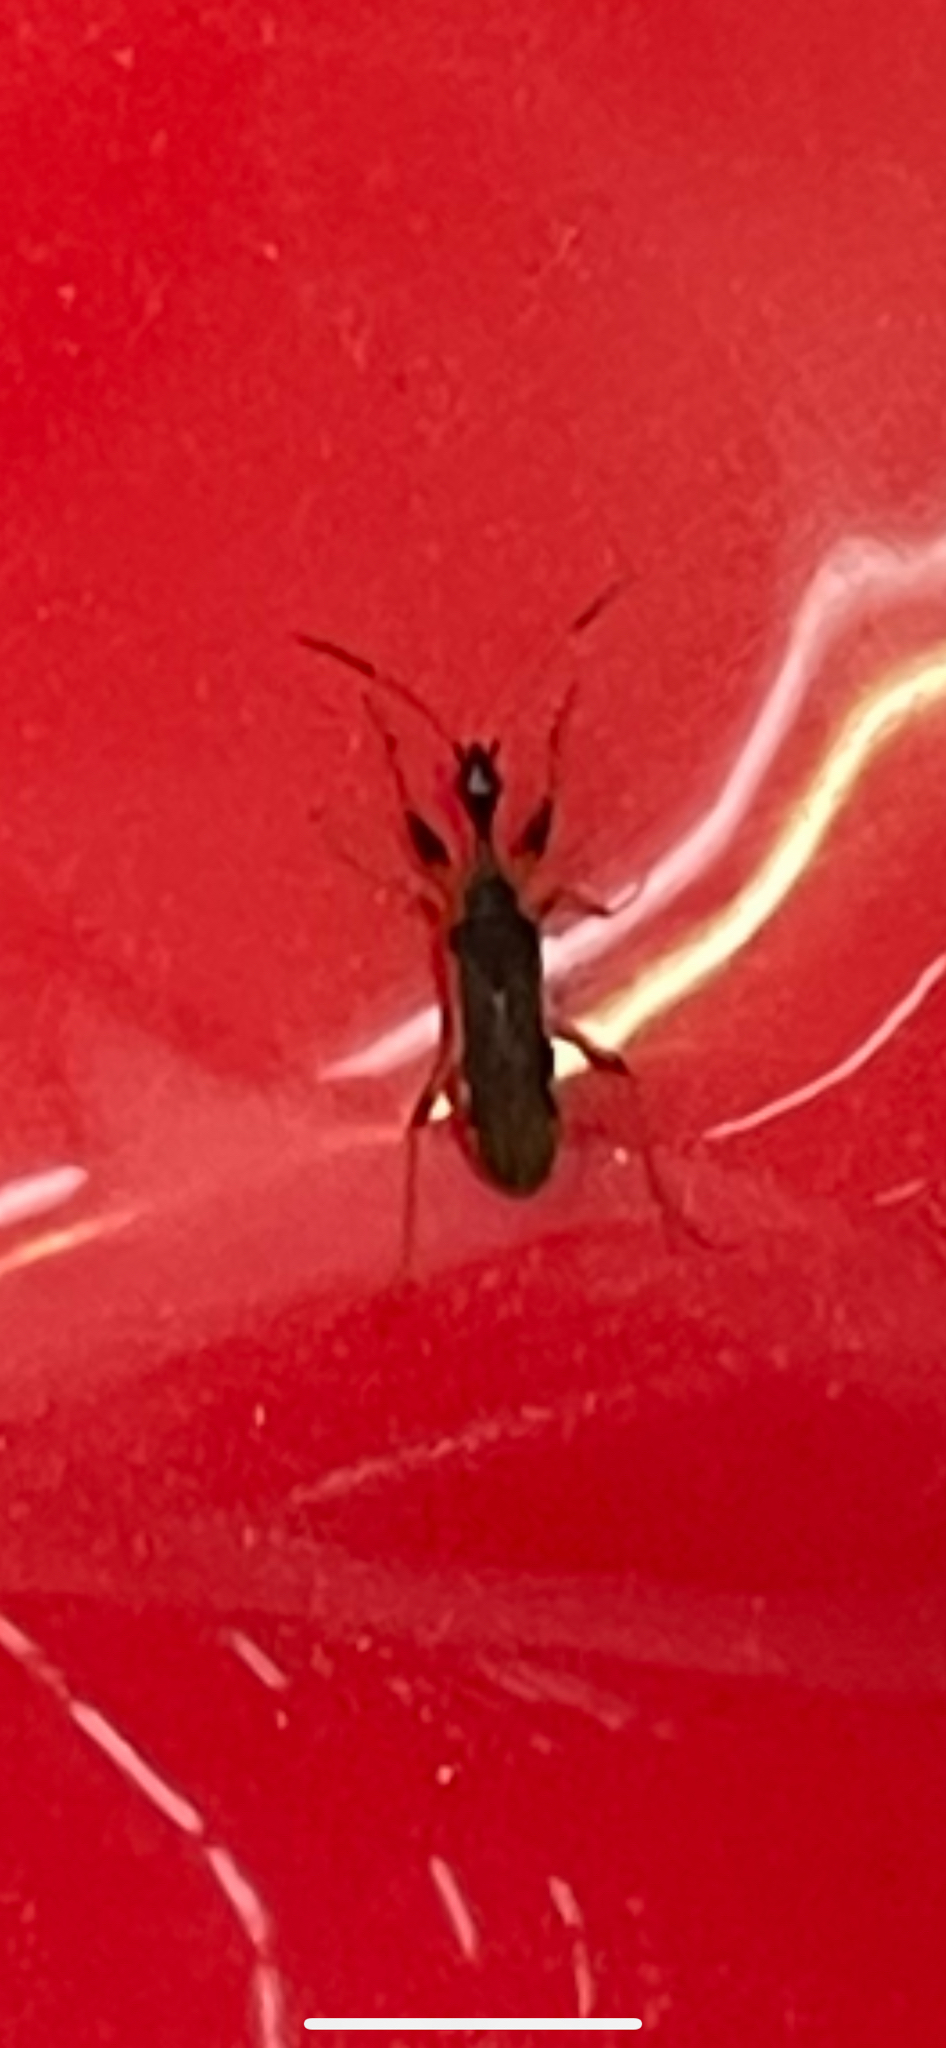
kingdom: Animalia
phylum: Arthropoda
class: Insecta
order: Hemiptera
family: Rhyparochromidae
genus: Myodocha
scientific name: Myodocha serripes
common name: Long-necked seed bug
